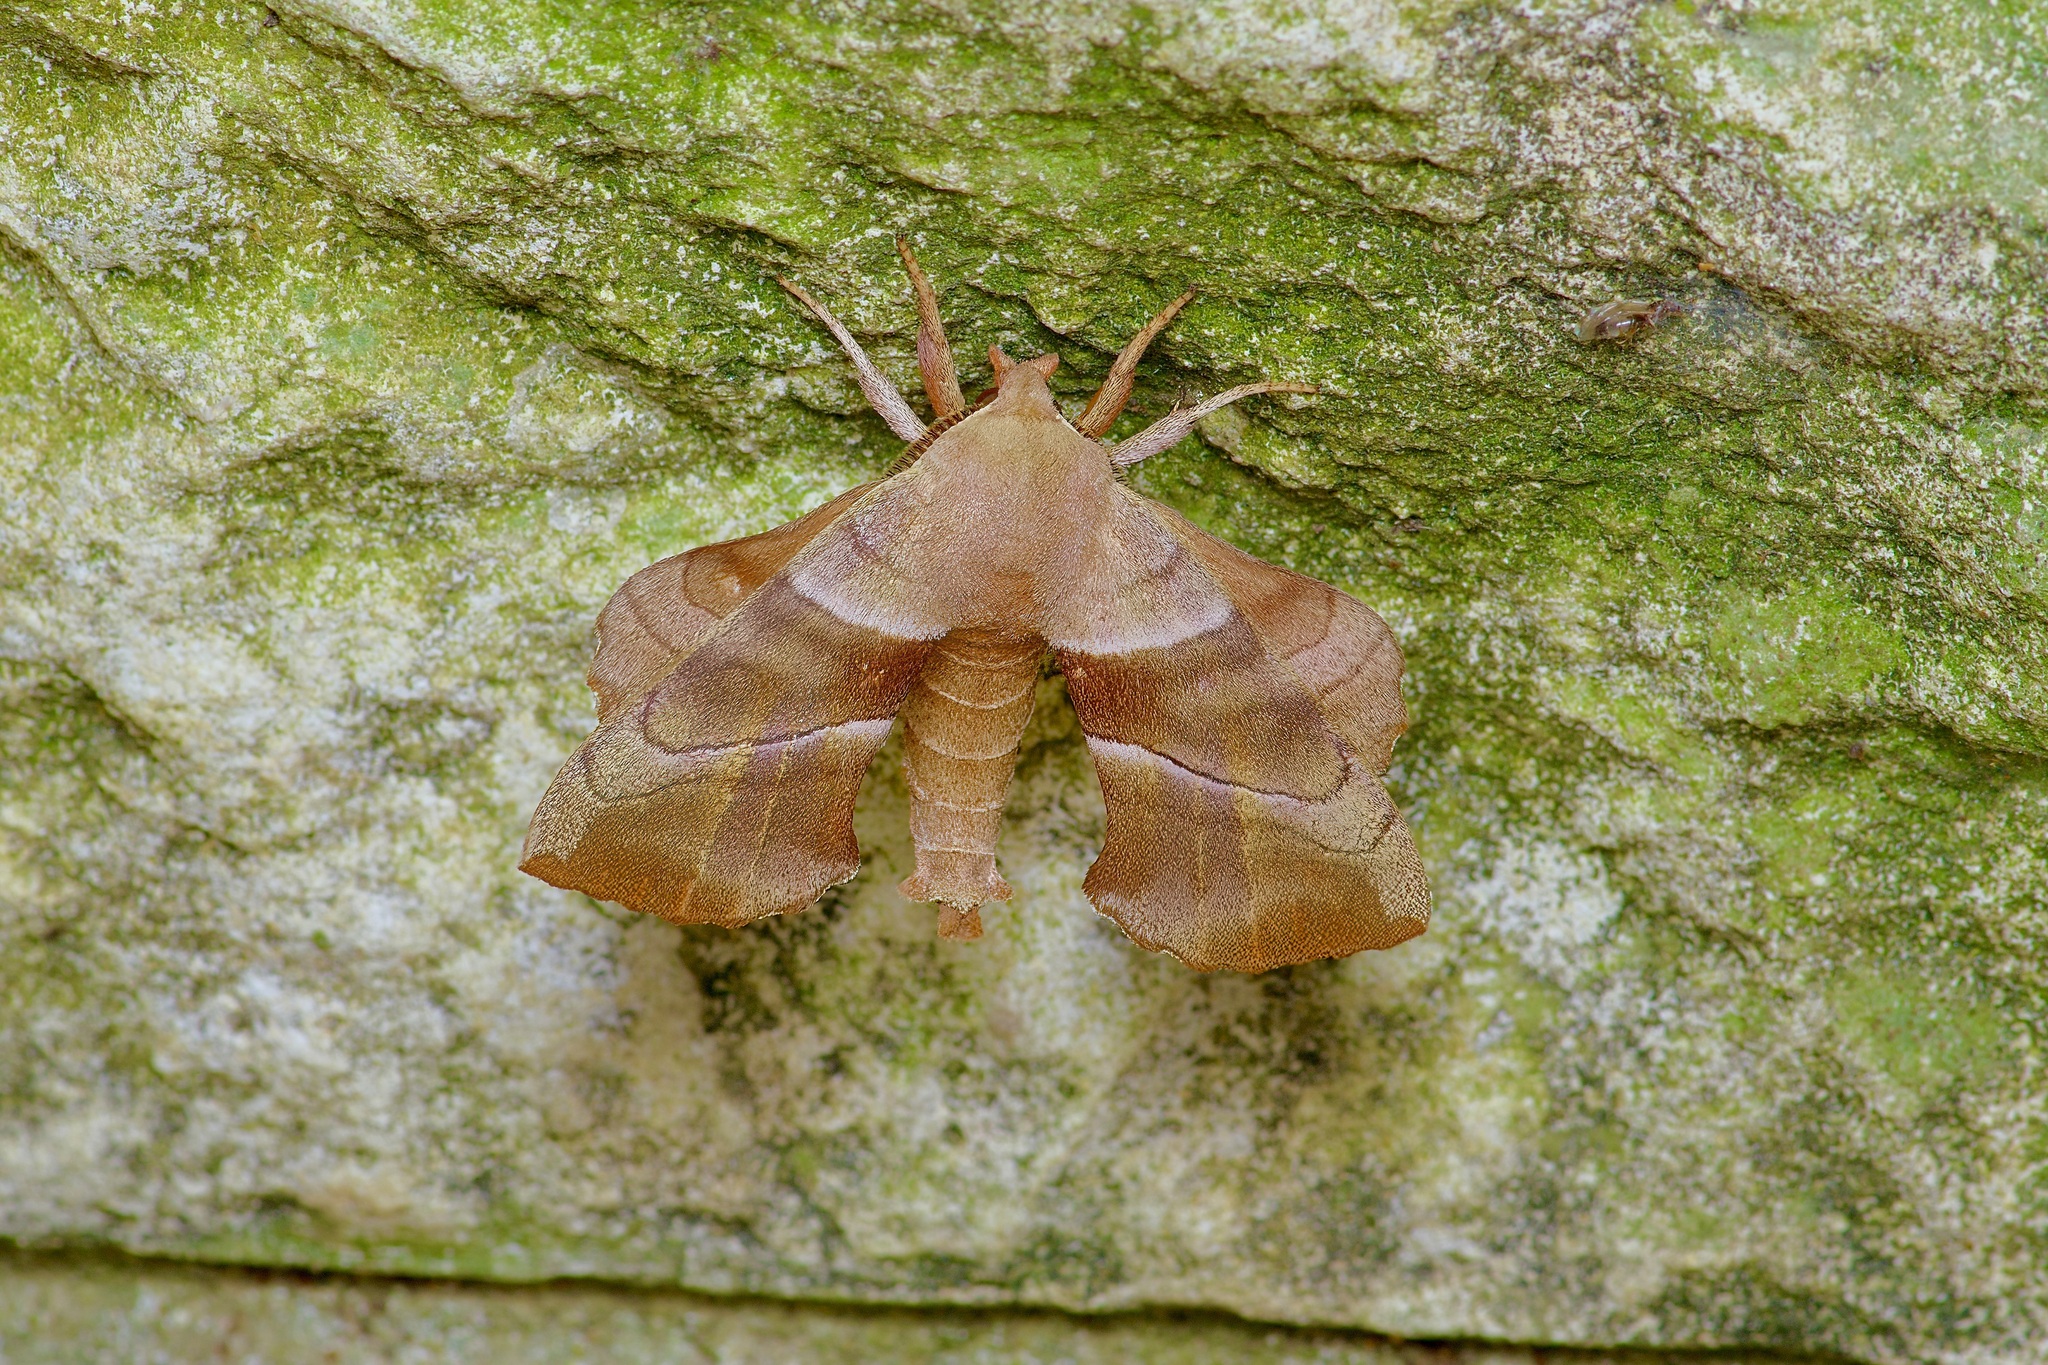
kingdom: Animalia
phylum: Arthropoda
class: Insecta
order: Lepidoptera
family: Sphingidae
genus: Amorpha
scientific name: Amorpha juglandis
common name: Walnut sphinx
